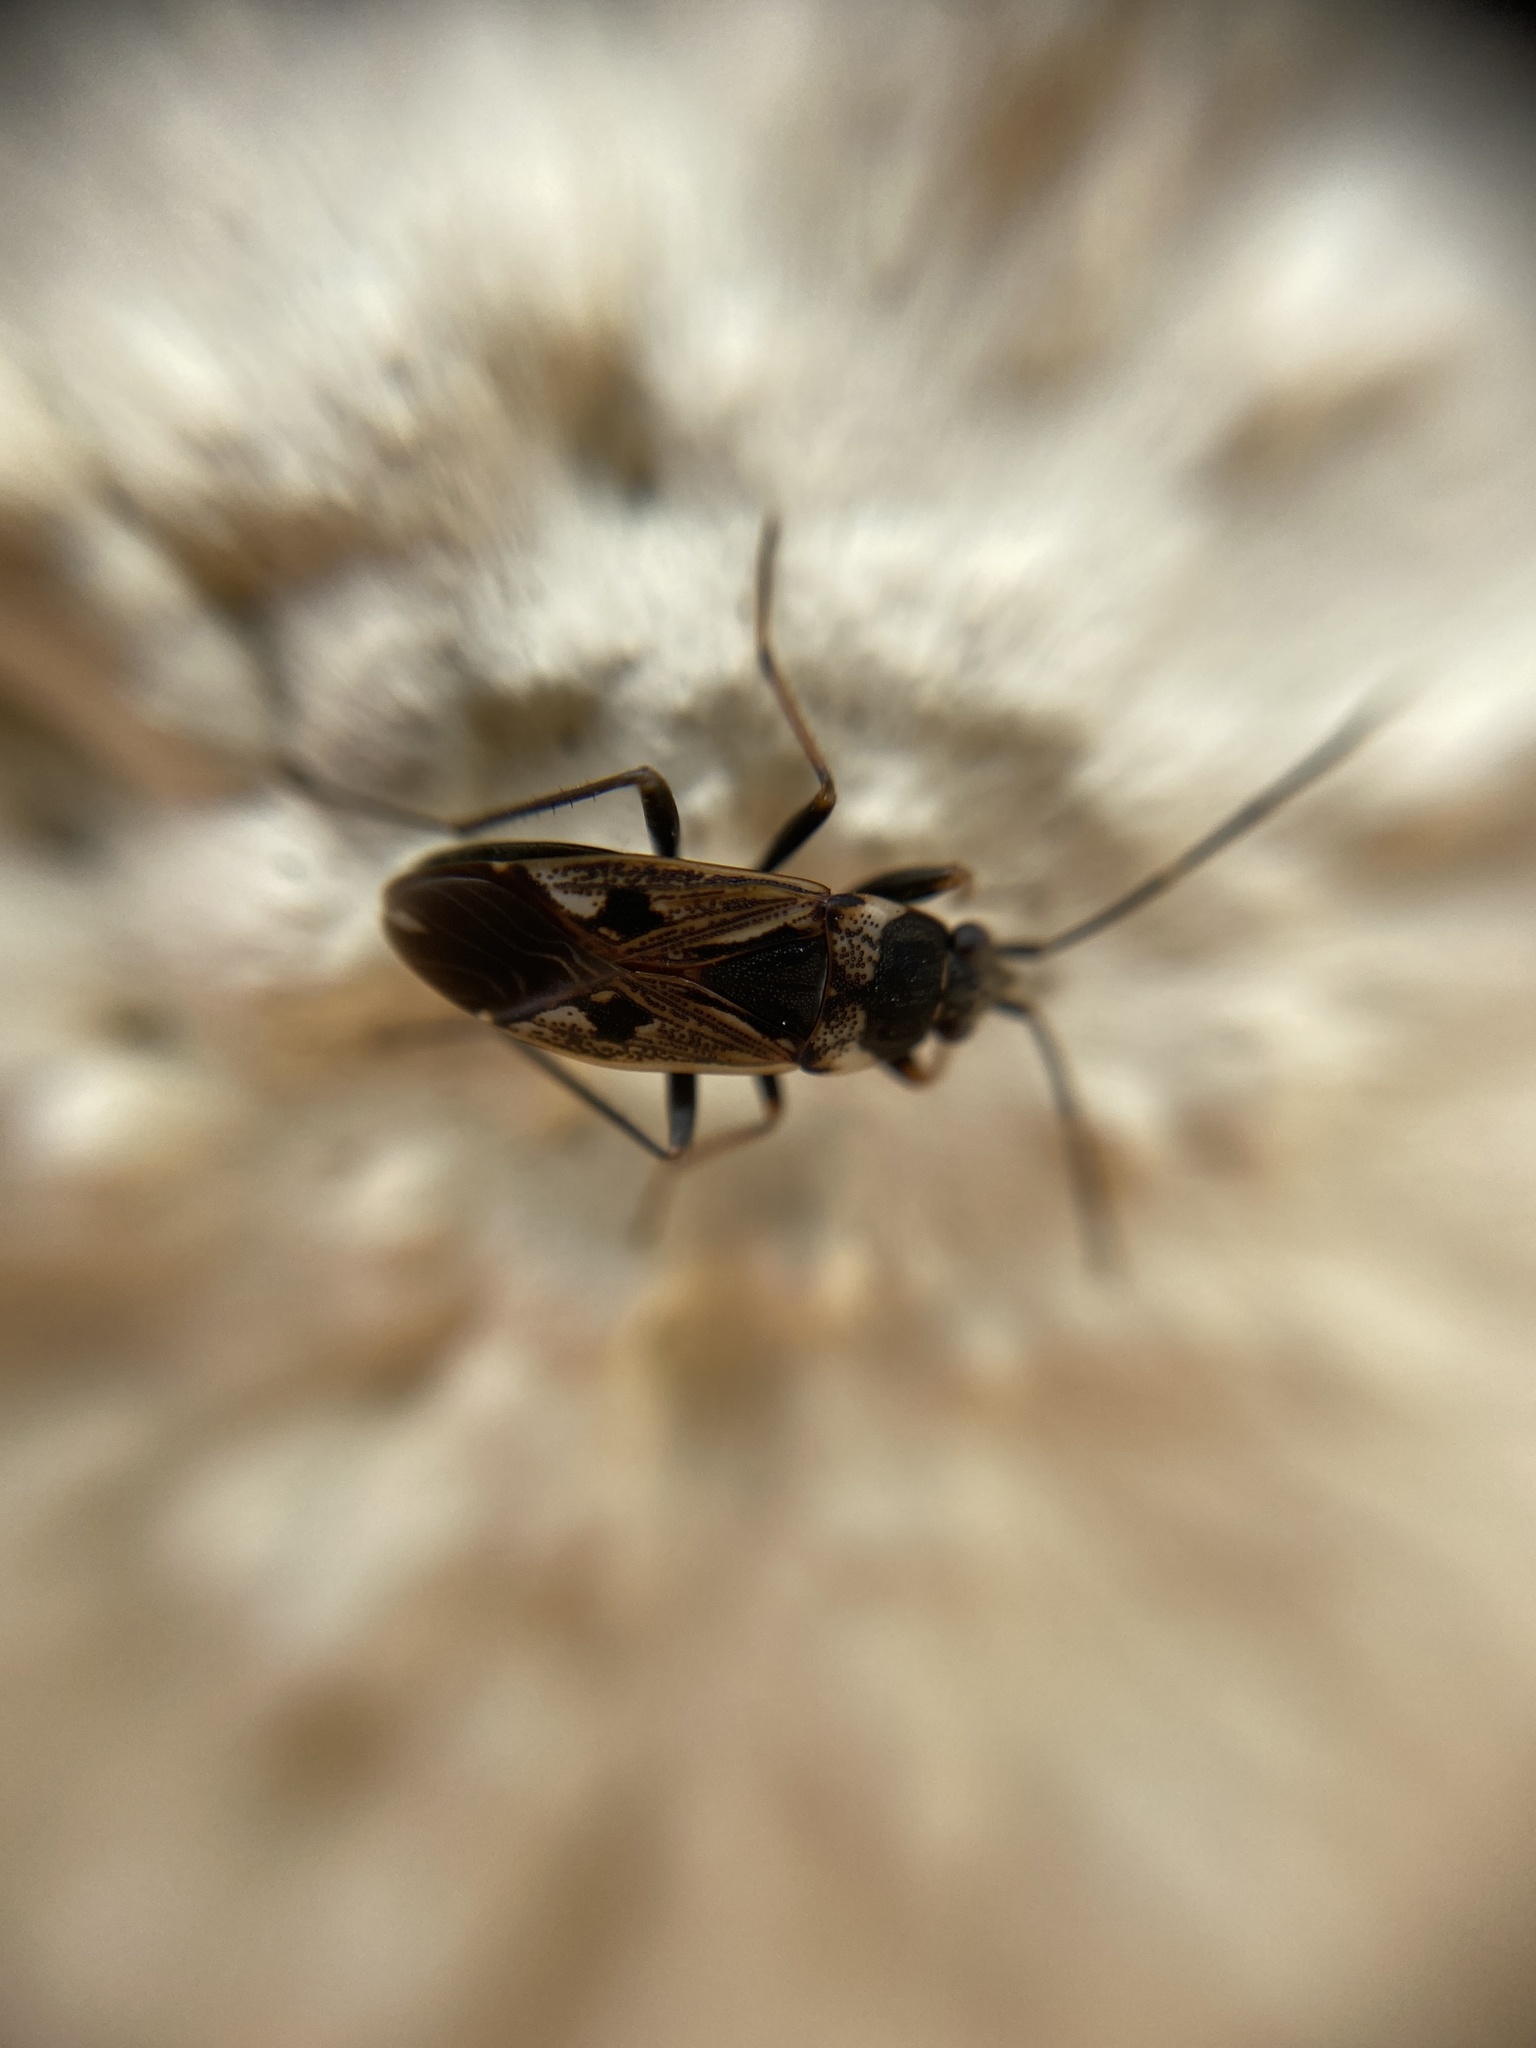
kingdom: Animalia
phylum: Arthropoda
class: Insecta
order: Hemiptera
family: Rhyparochromidae
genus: Rhyparochromus
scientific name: Rhyparochromus vulgaris
